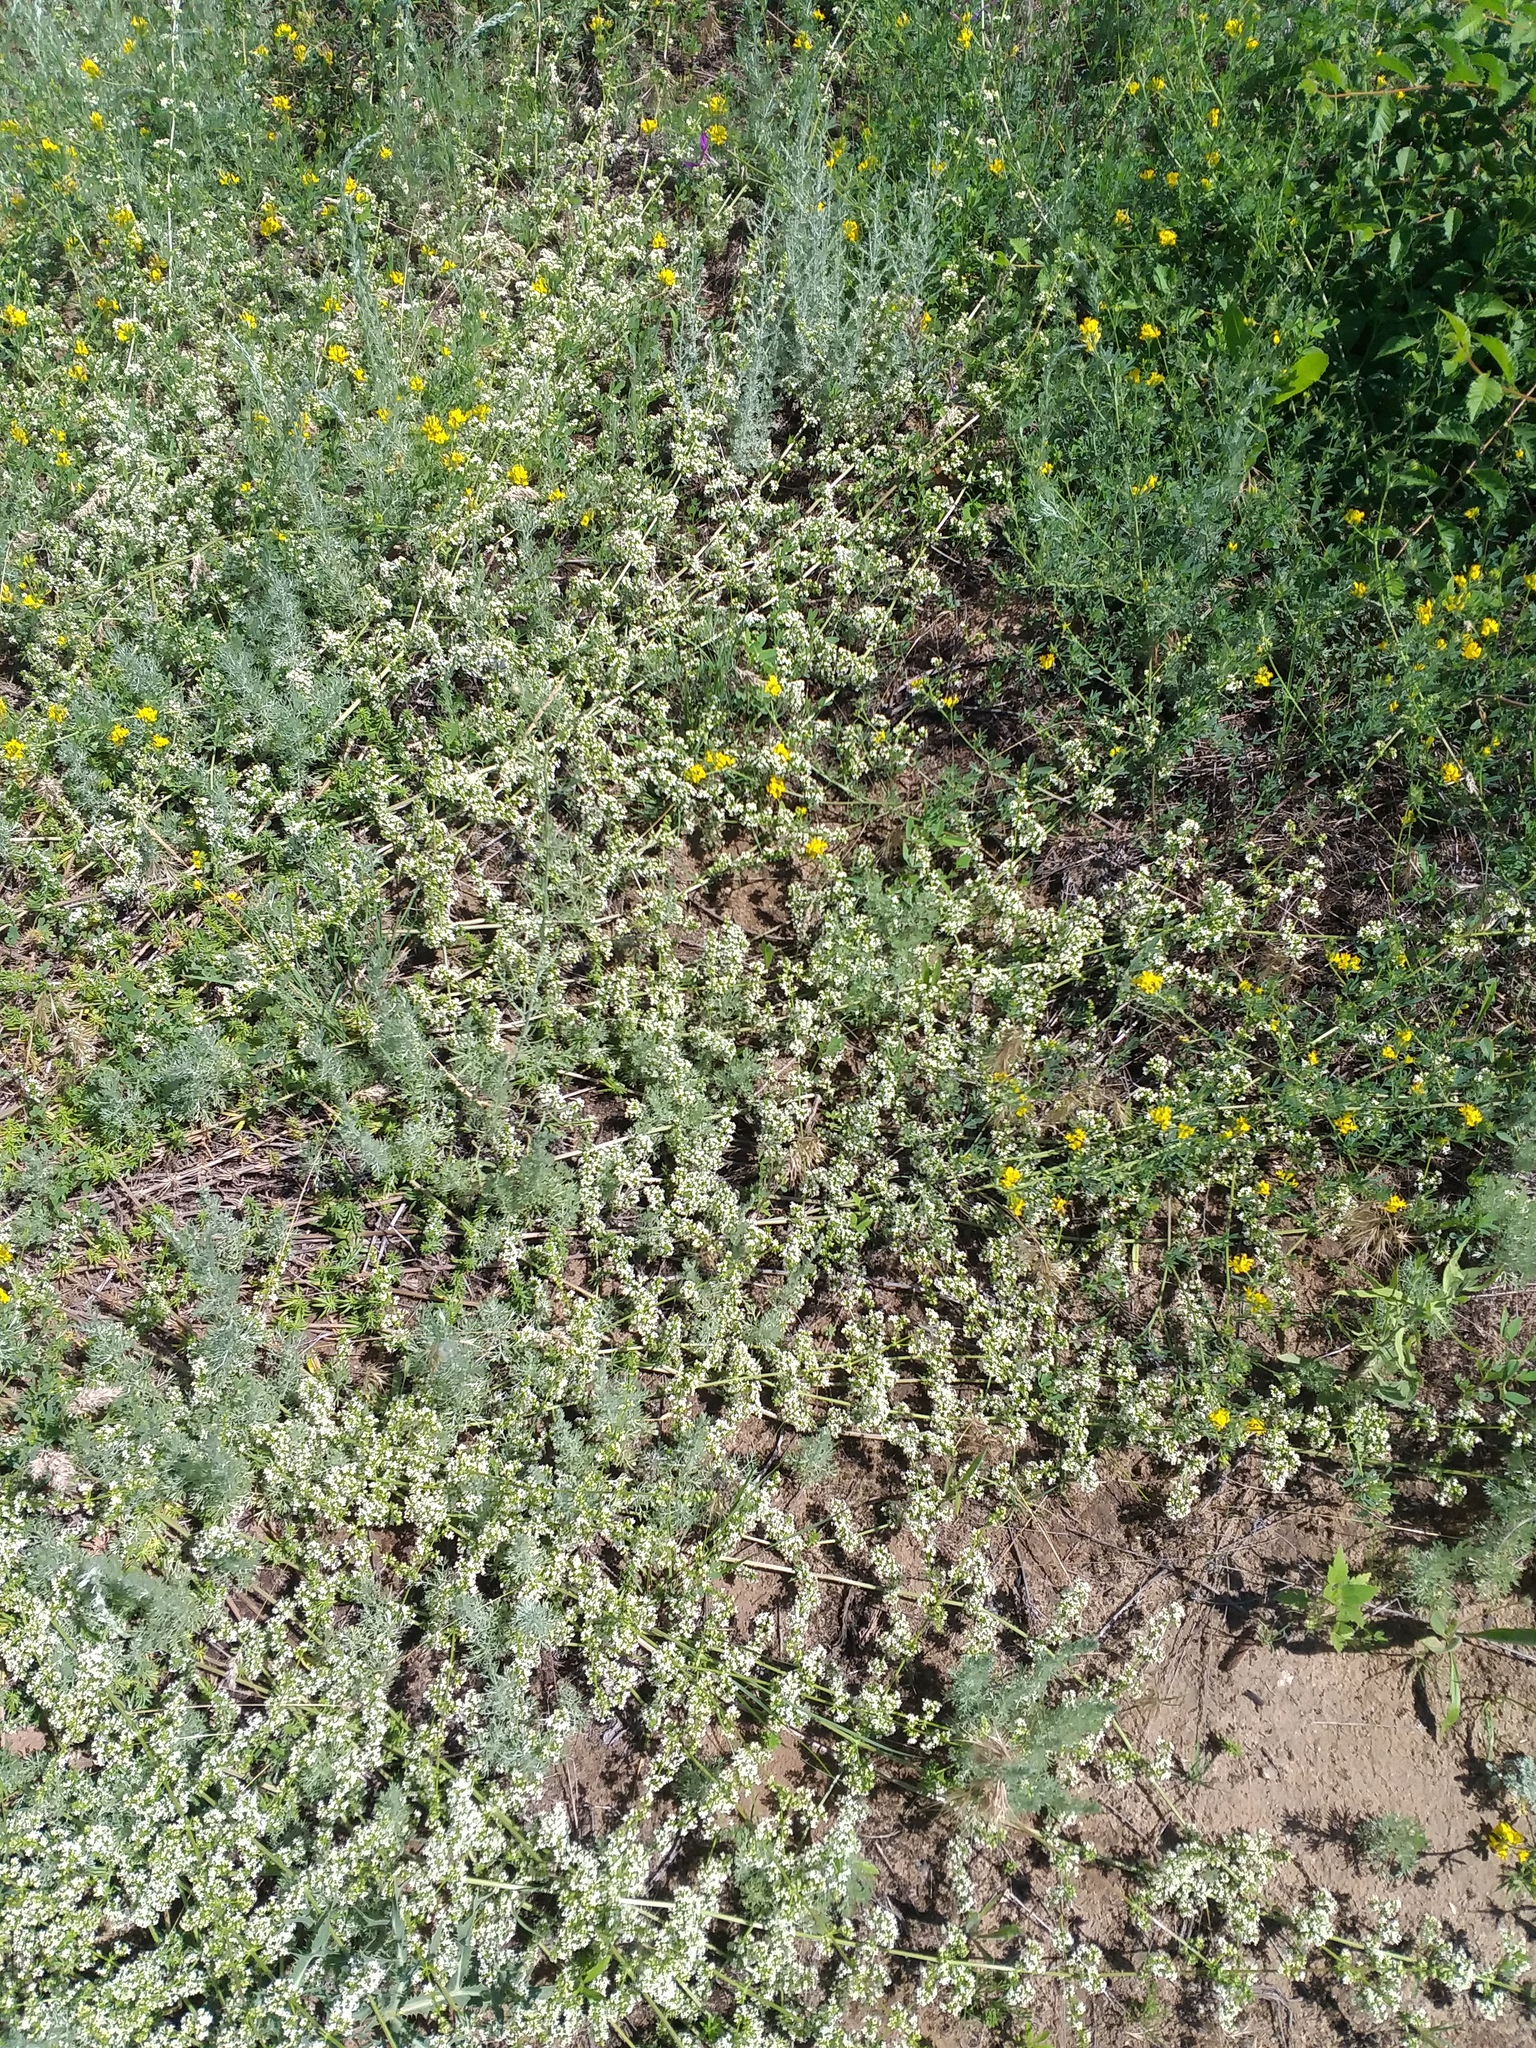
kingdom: Plantae
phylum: Tracheophyta
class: Magnoliopsida
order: Gentianales
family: Rubiaceae
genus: Galium
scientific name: Galium humifusum
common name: Spreading bedstraw
